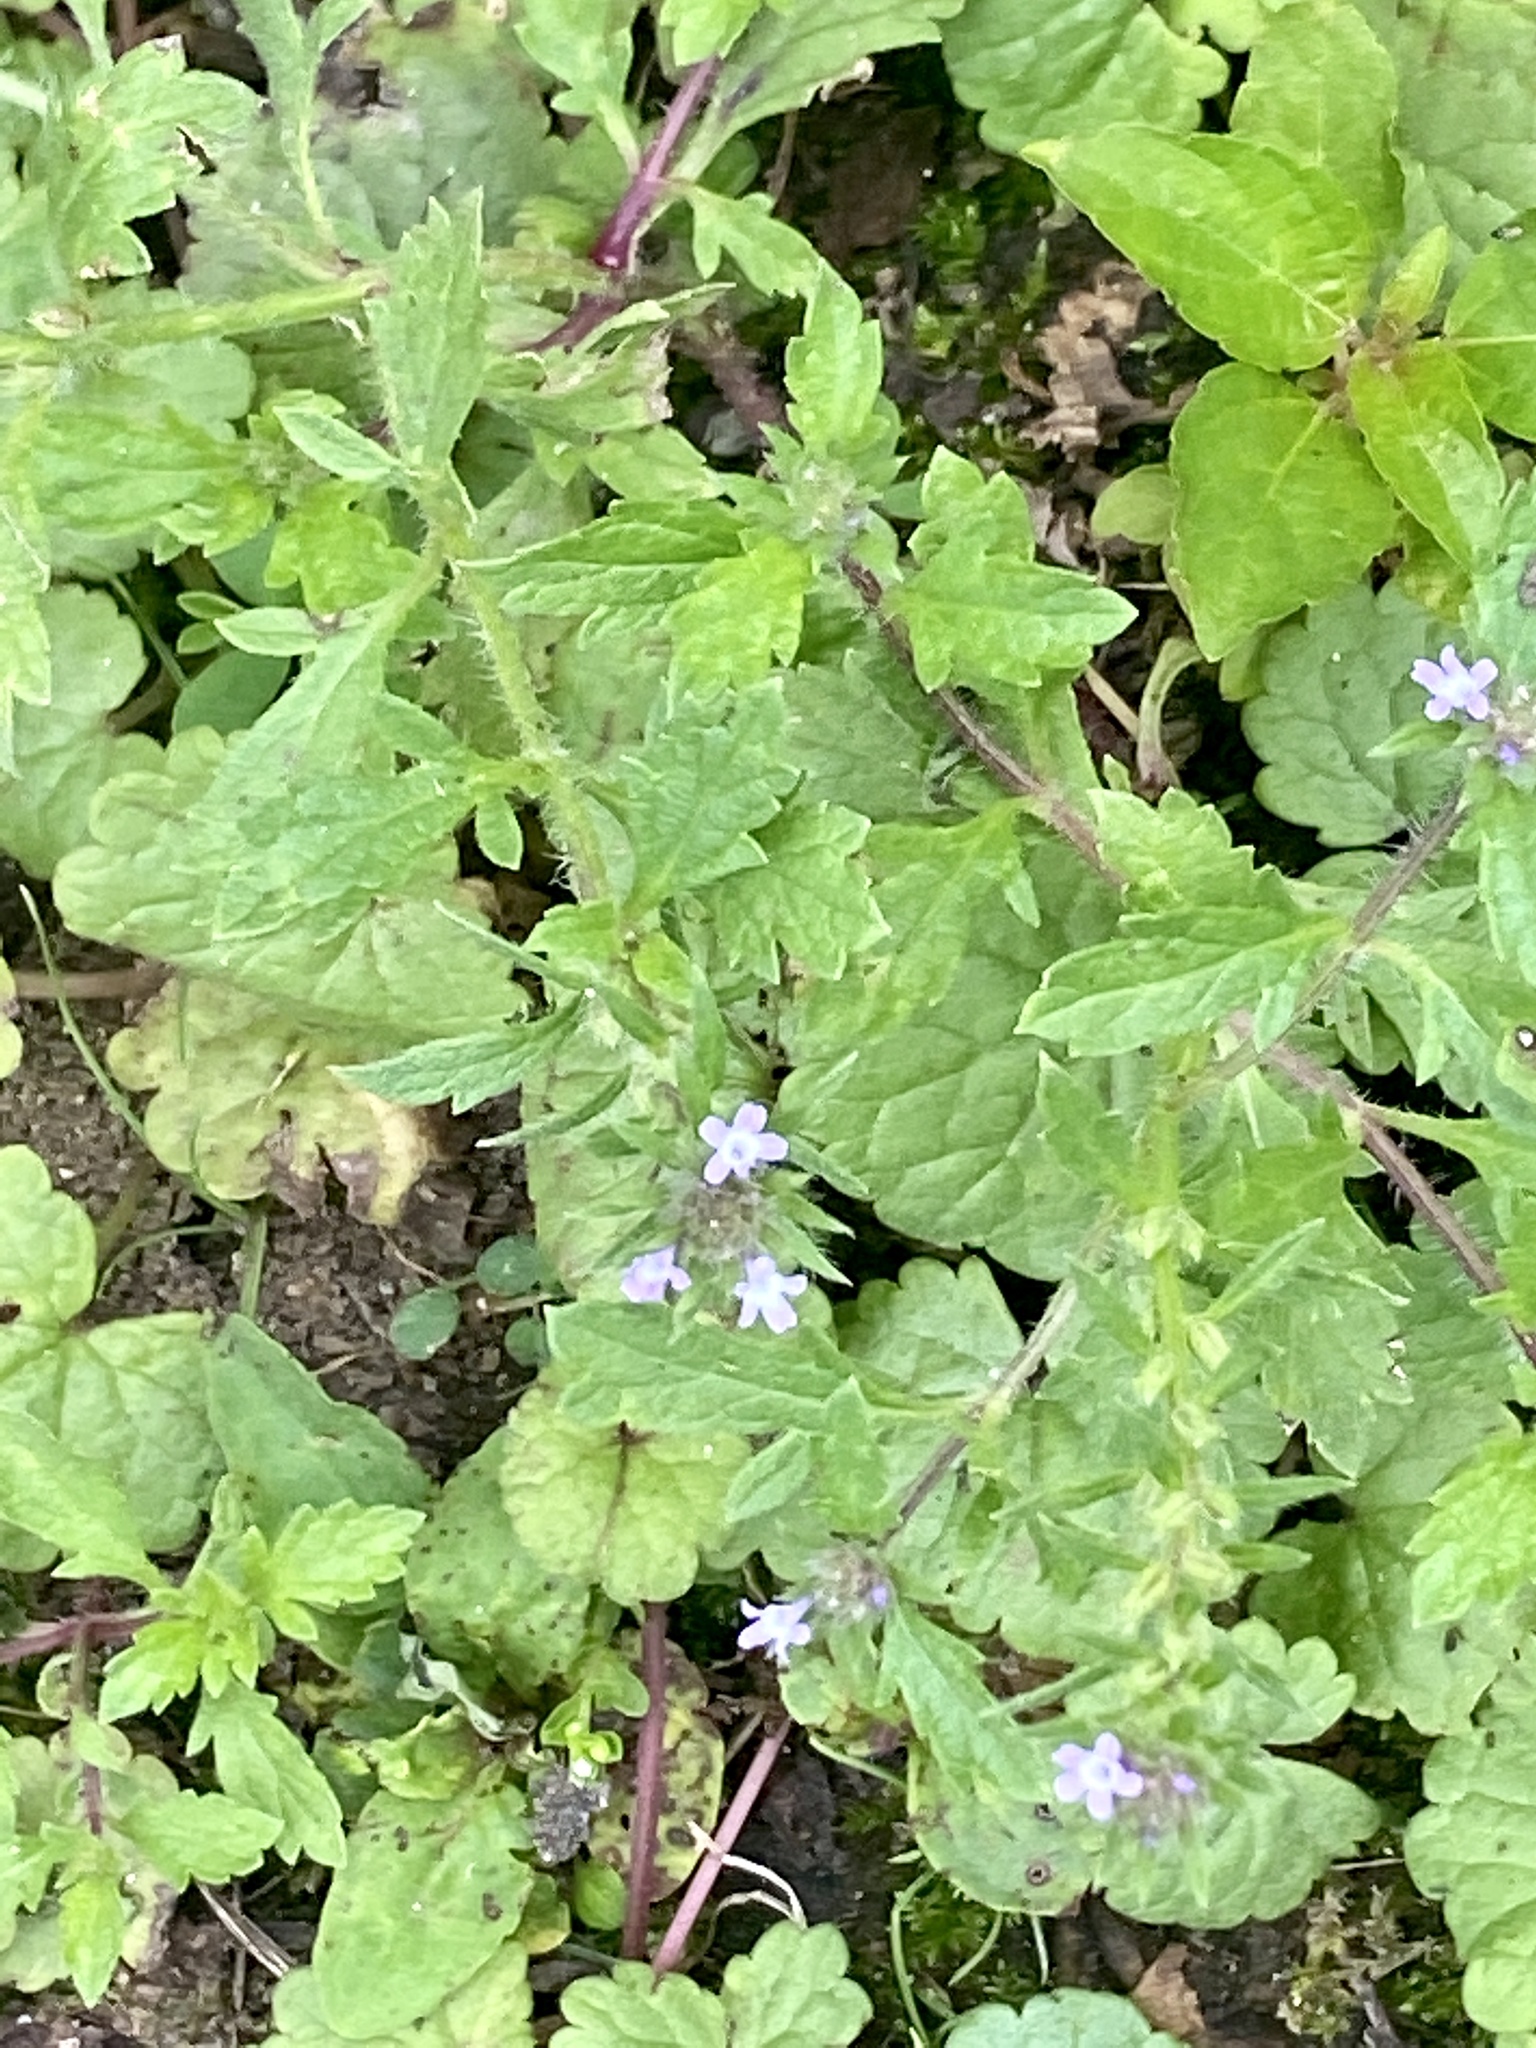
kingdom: Plantae
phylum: Tracheophyta
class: Magnoliopsida
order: Lamiales
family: Verbenaceae
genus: Verbena
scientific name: Verbena bracteata
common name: Bracted vervain
